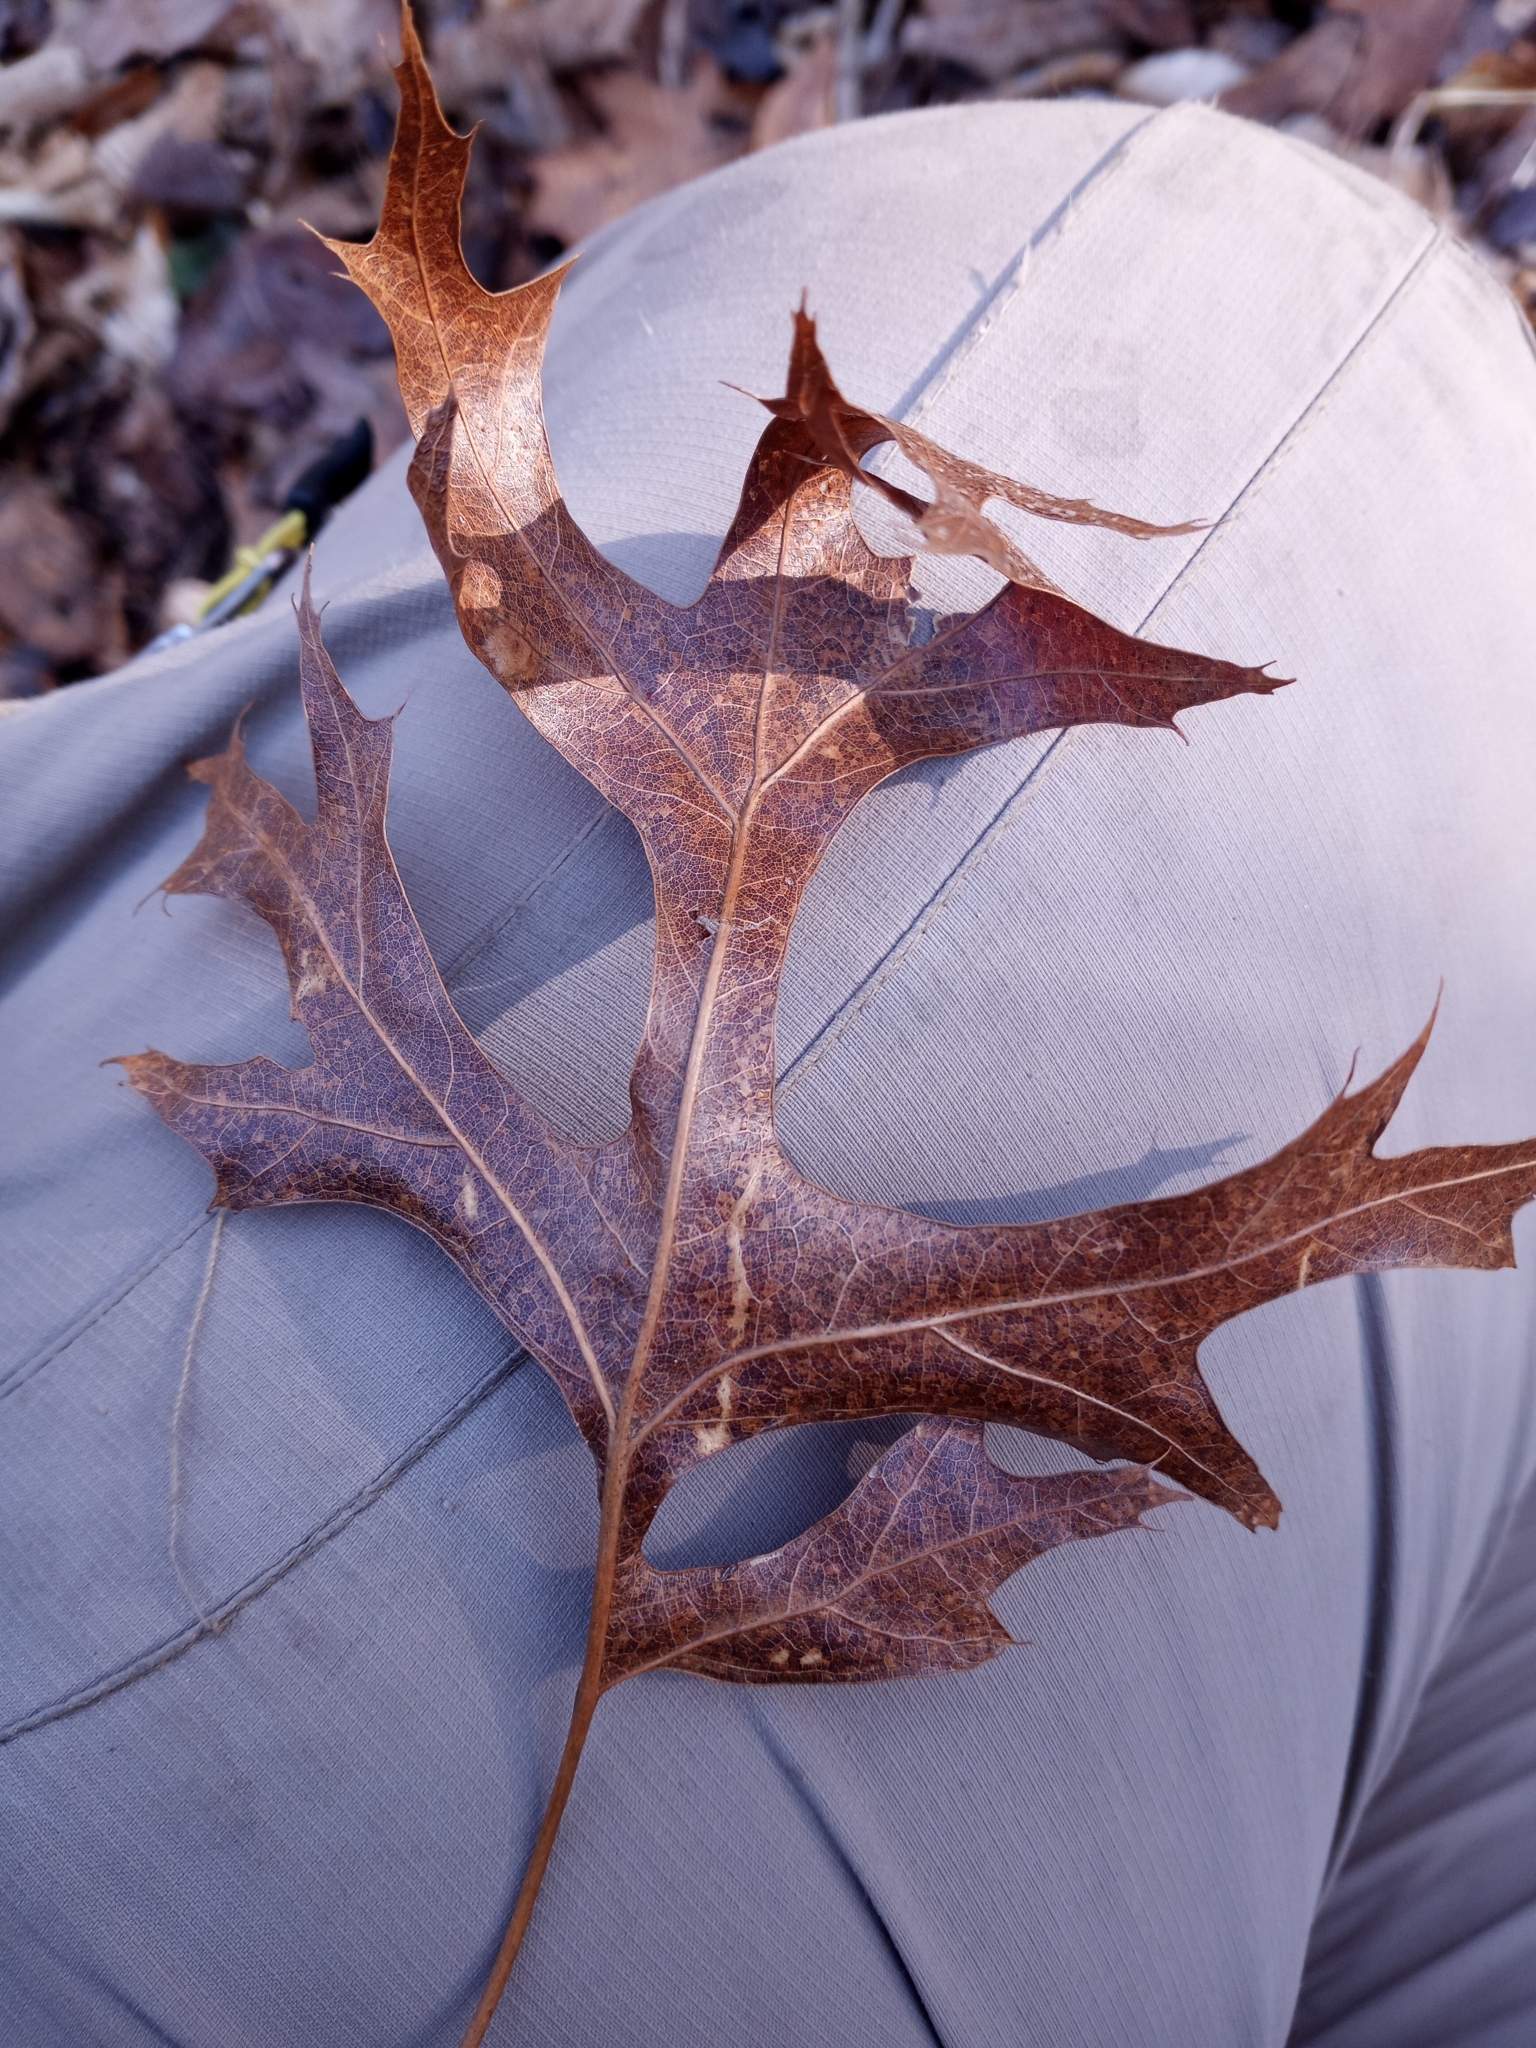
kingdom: Plantae
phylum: Tracheophyta
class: Magnoliopsida
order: Fagales
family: Fagaceae
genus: Quercus
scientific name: Quercus coccinea
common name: Scarlet oak
